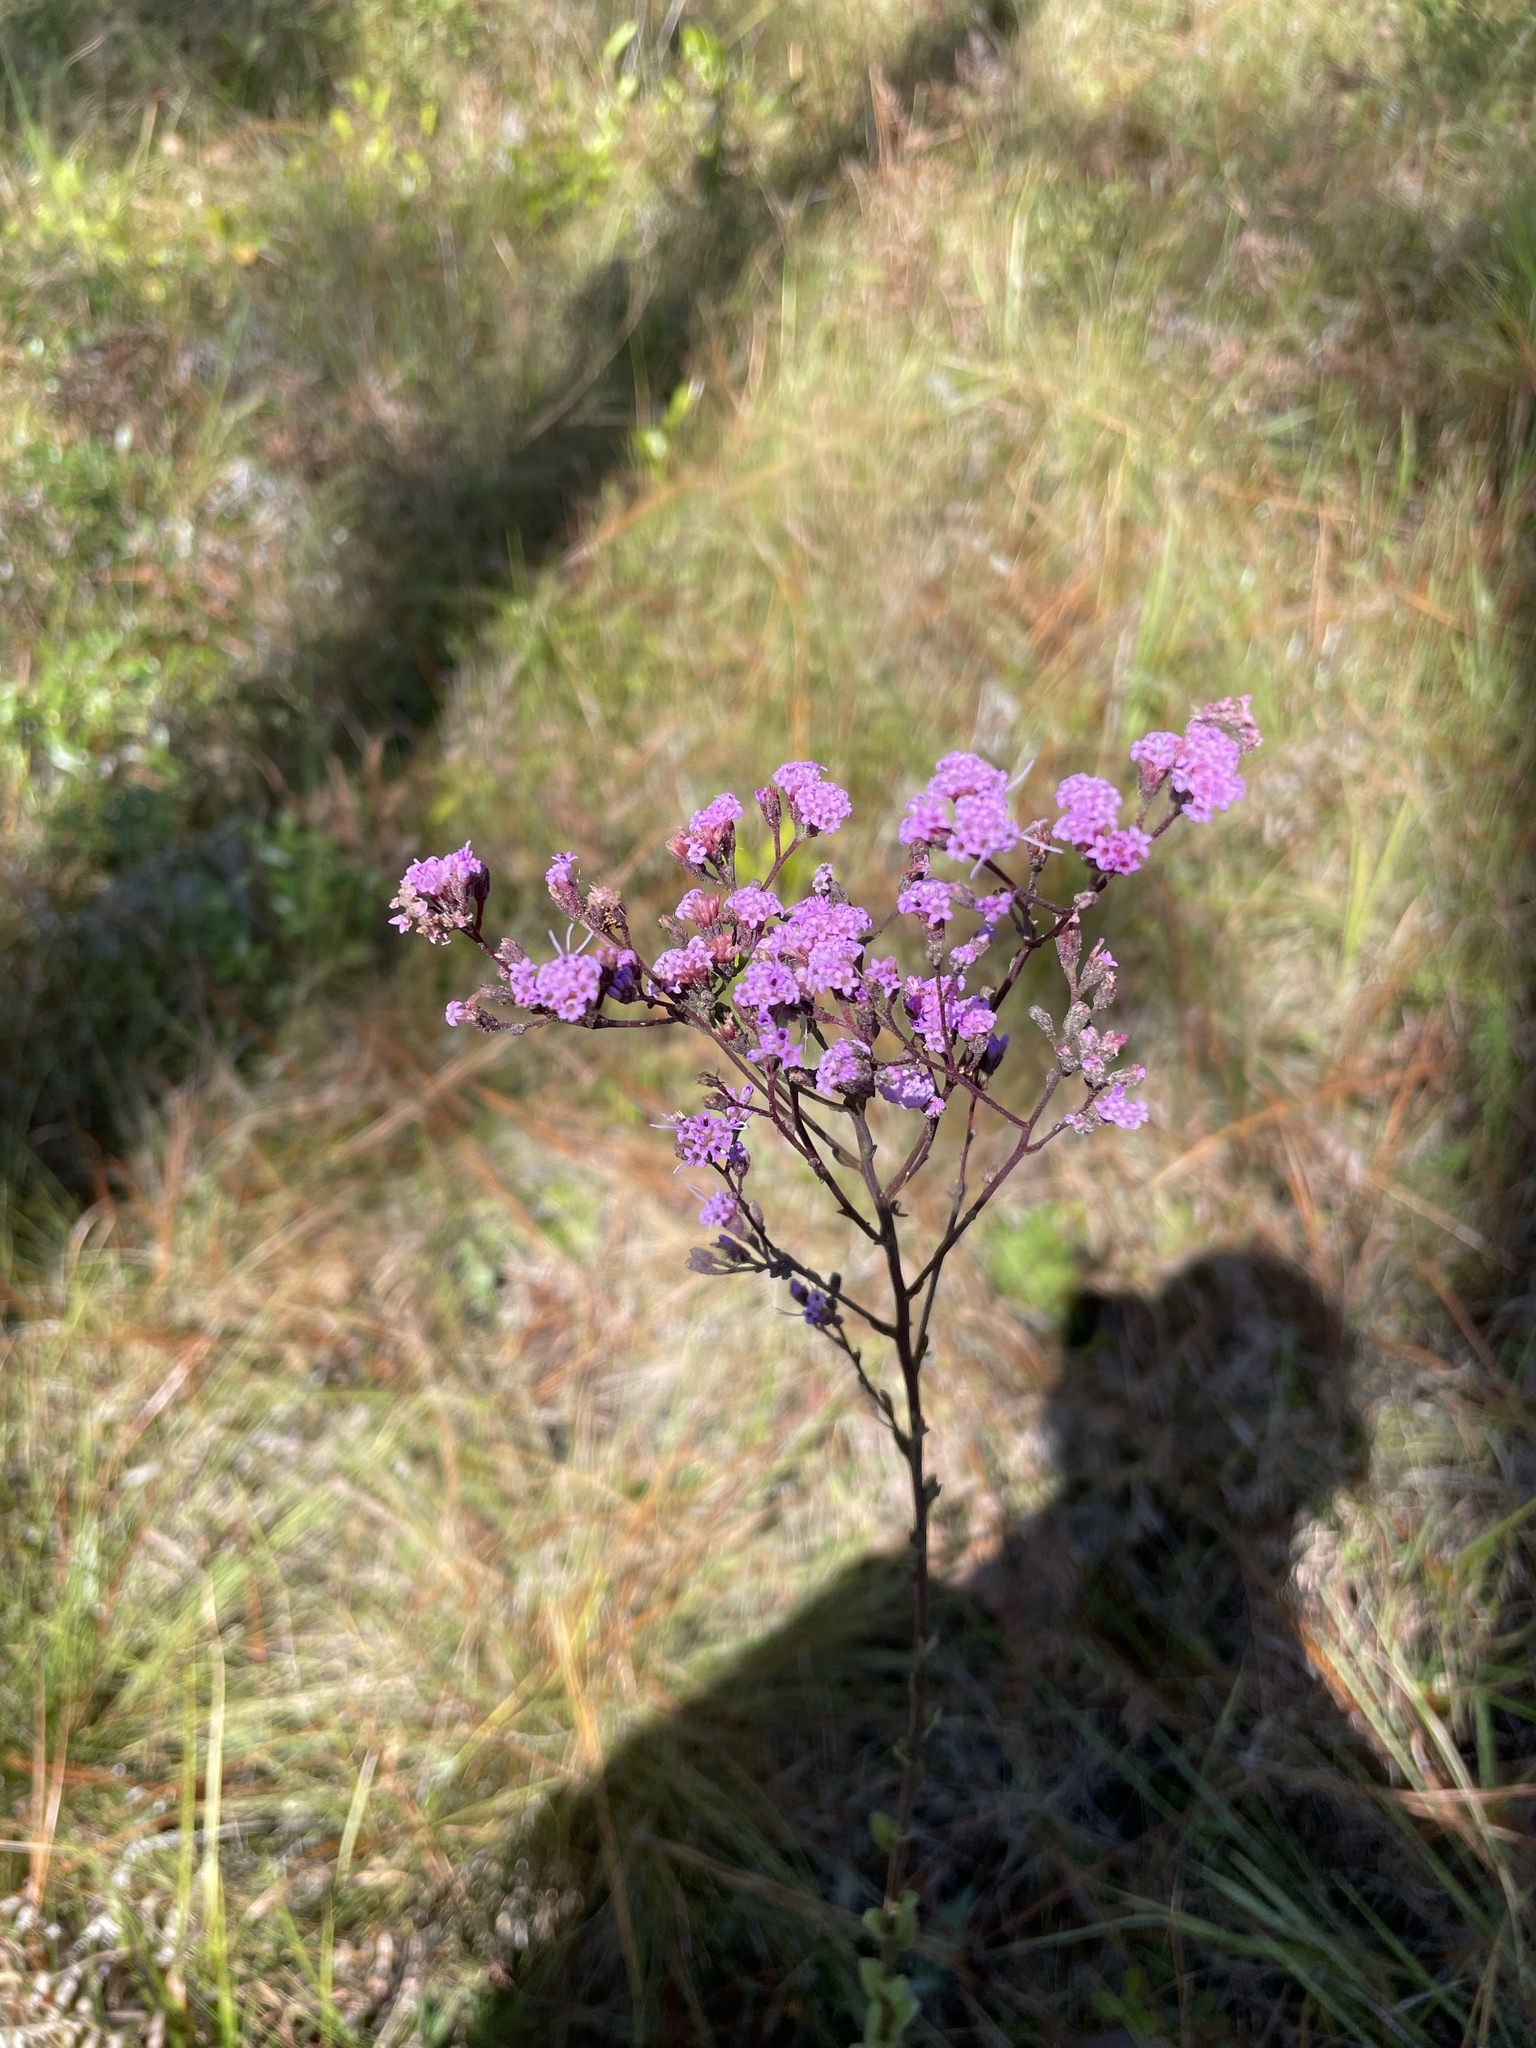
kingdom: Plantae
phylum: Tracheophyta
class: Magnoliopsida
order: Asterales
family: Asteraceae
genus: Carphephorus
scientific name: Carphephorus odoratissimus
